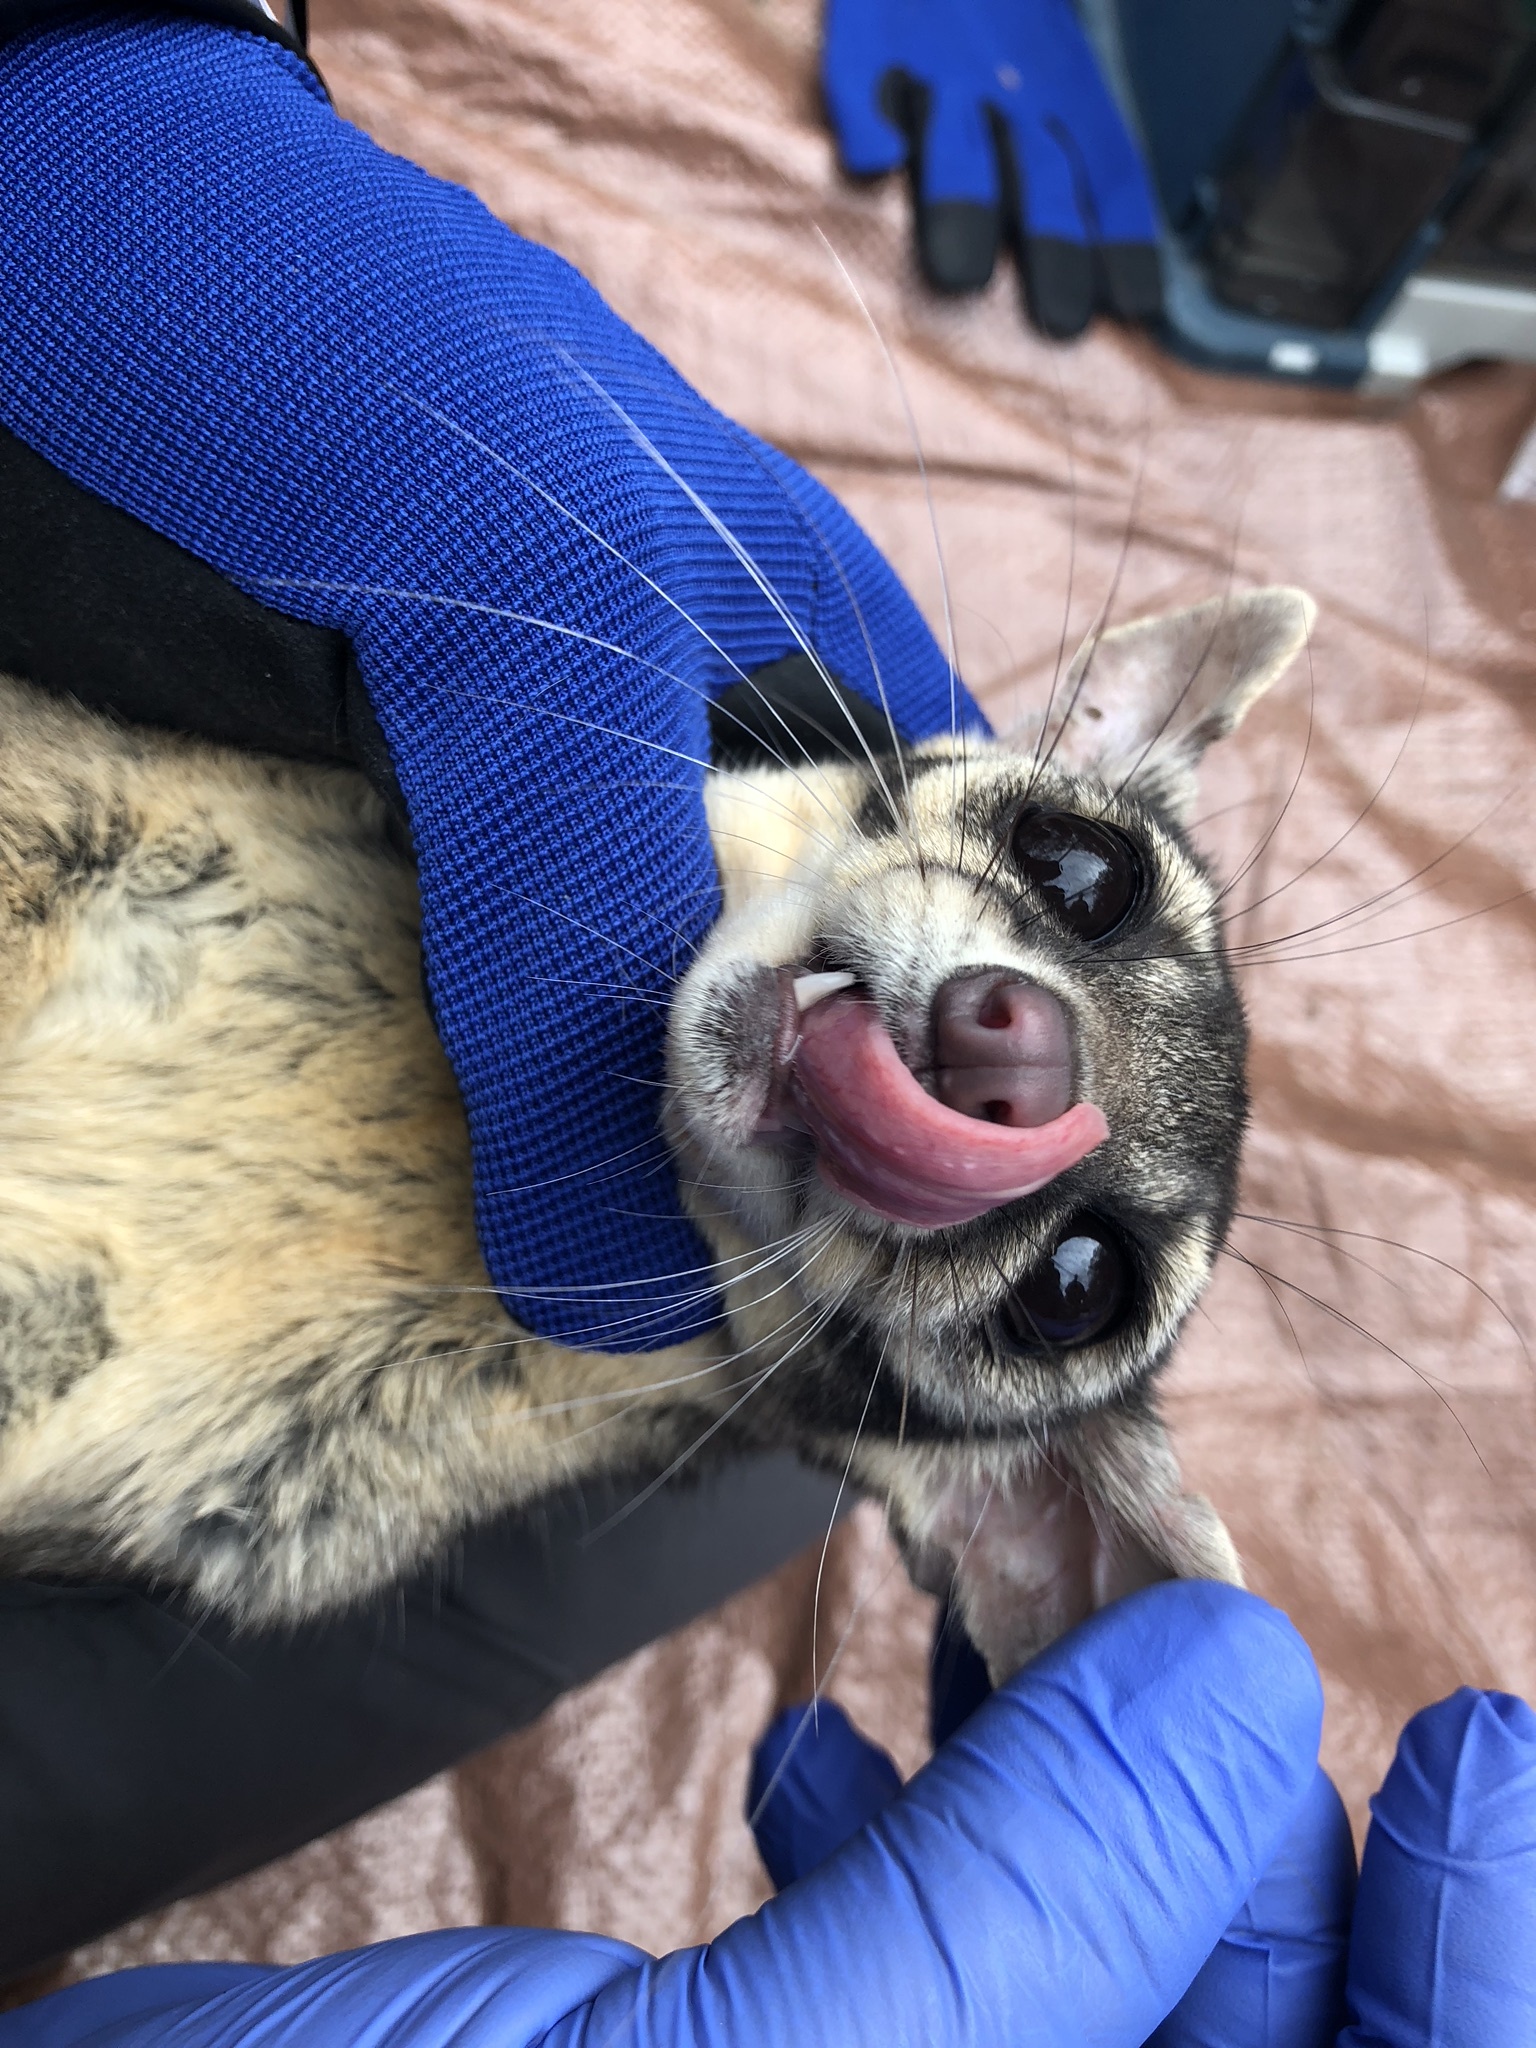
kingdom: Animalia
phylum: Chordata
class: Mammalia
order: Carnivora
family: Procyonidae
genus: Bassariscus
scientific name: Bassariscus astutus
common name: Ringtail
